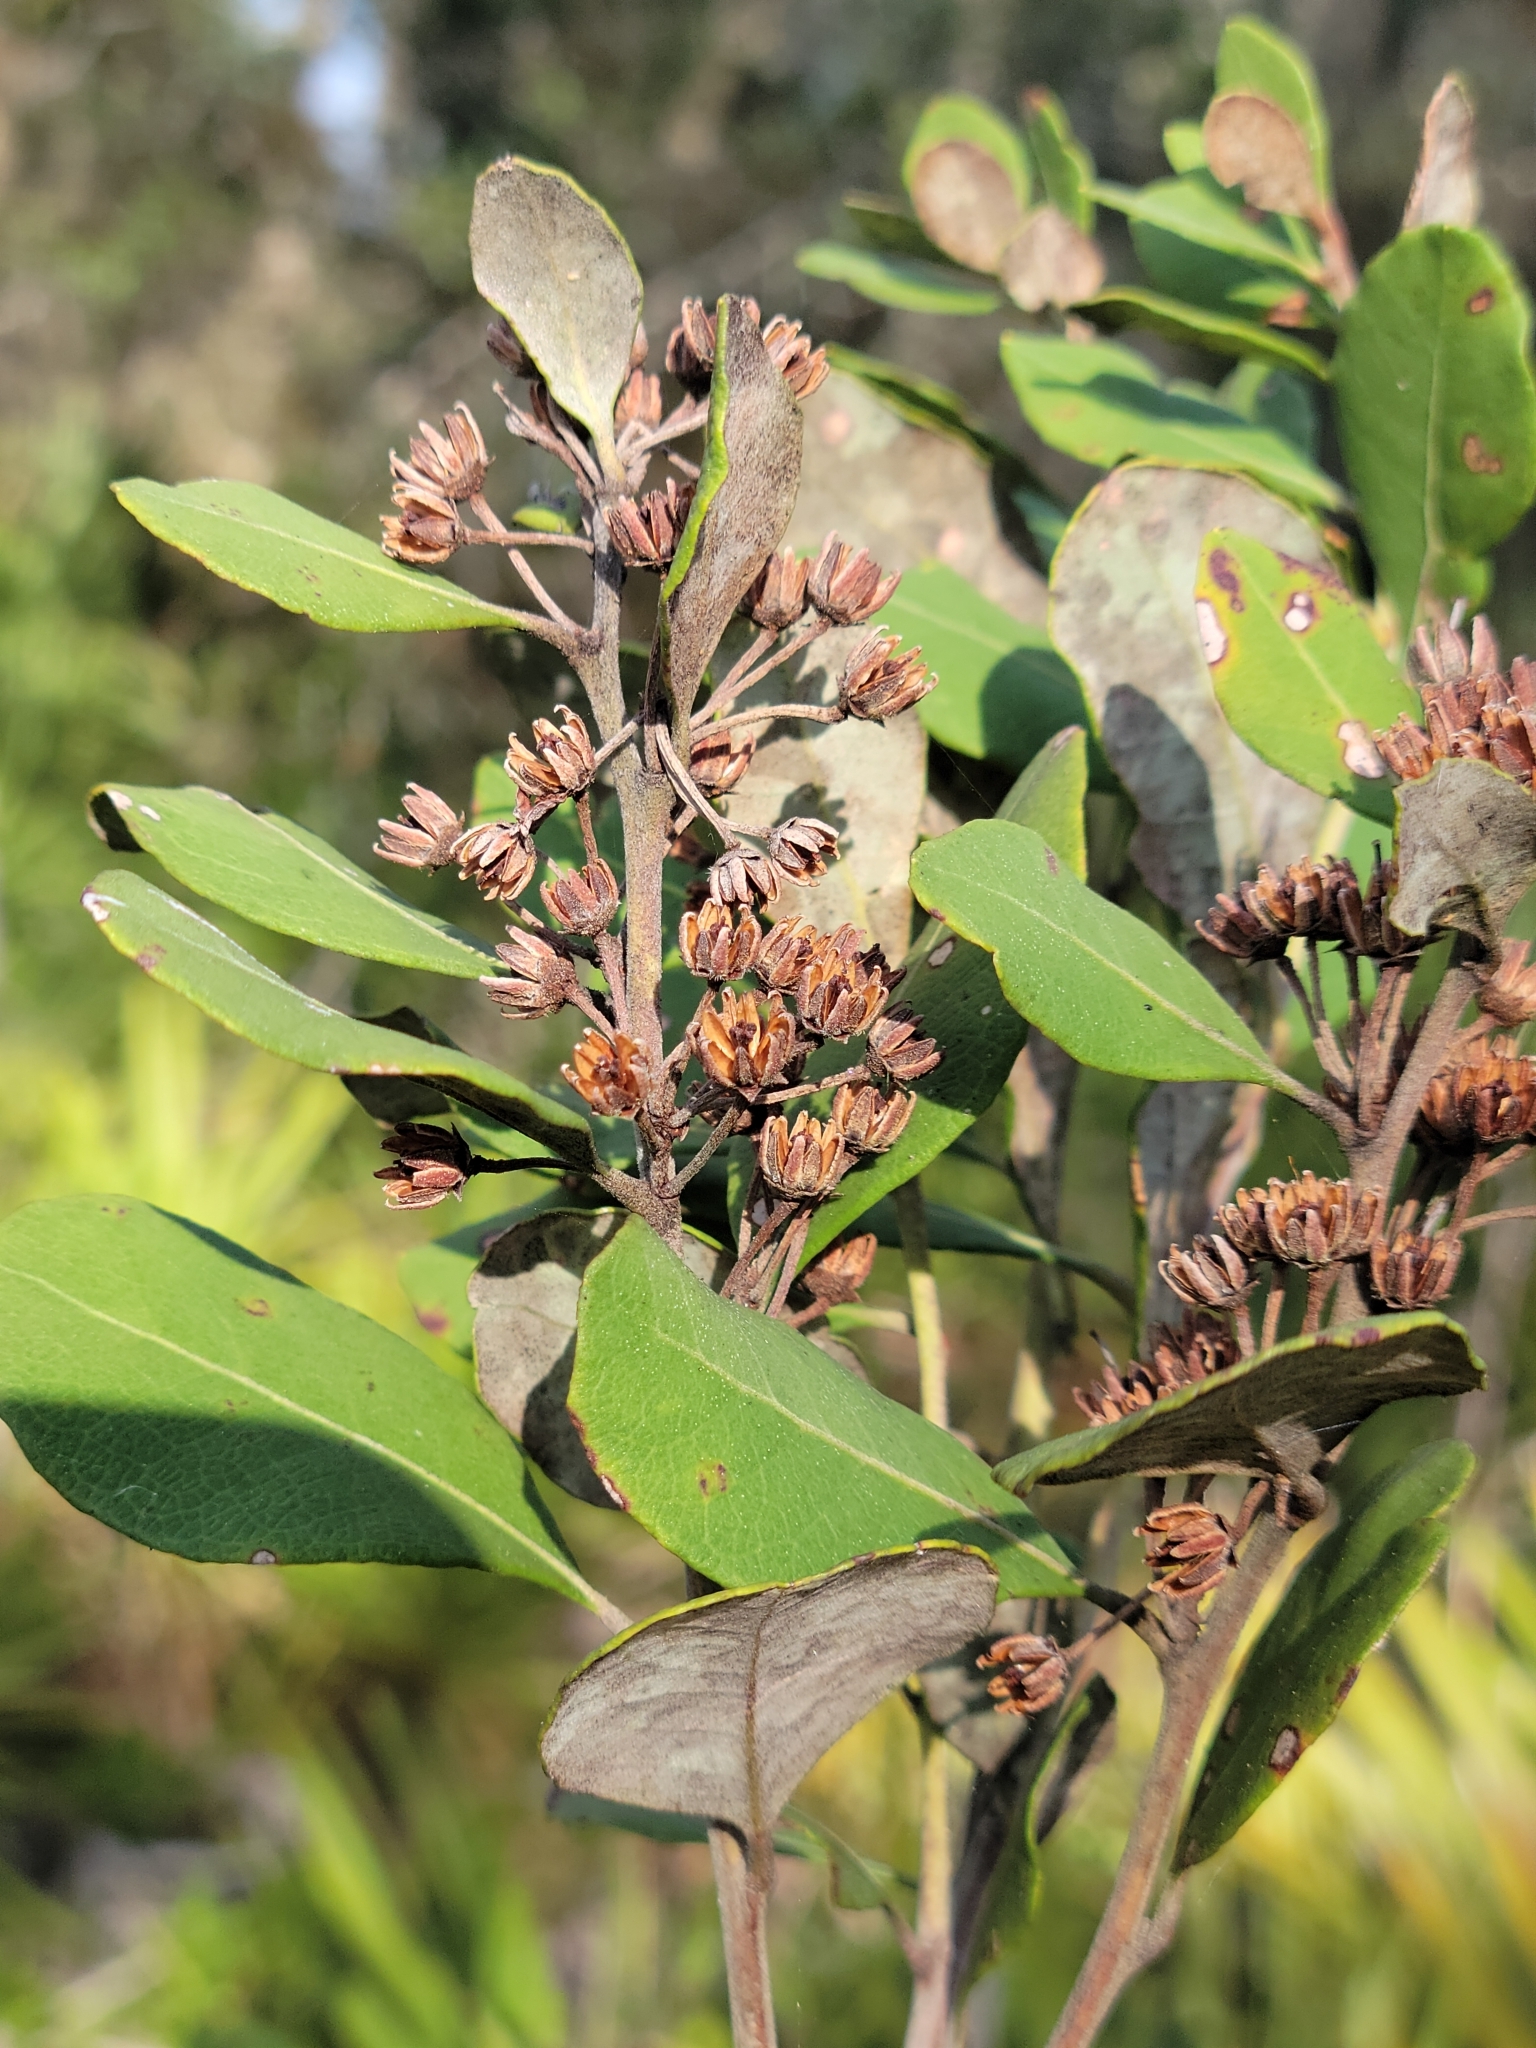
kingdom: Plantae
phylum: Tracheophyta
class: Magnoliopsida
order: Ericales
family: Ericaceae
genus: Lyonia
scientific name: Lyonia fruticosa
